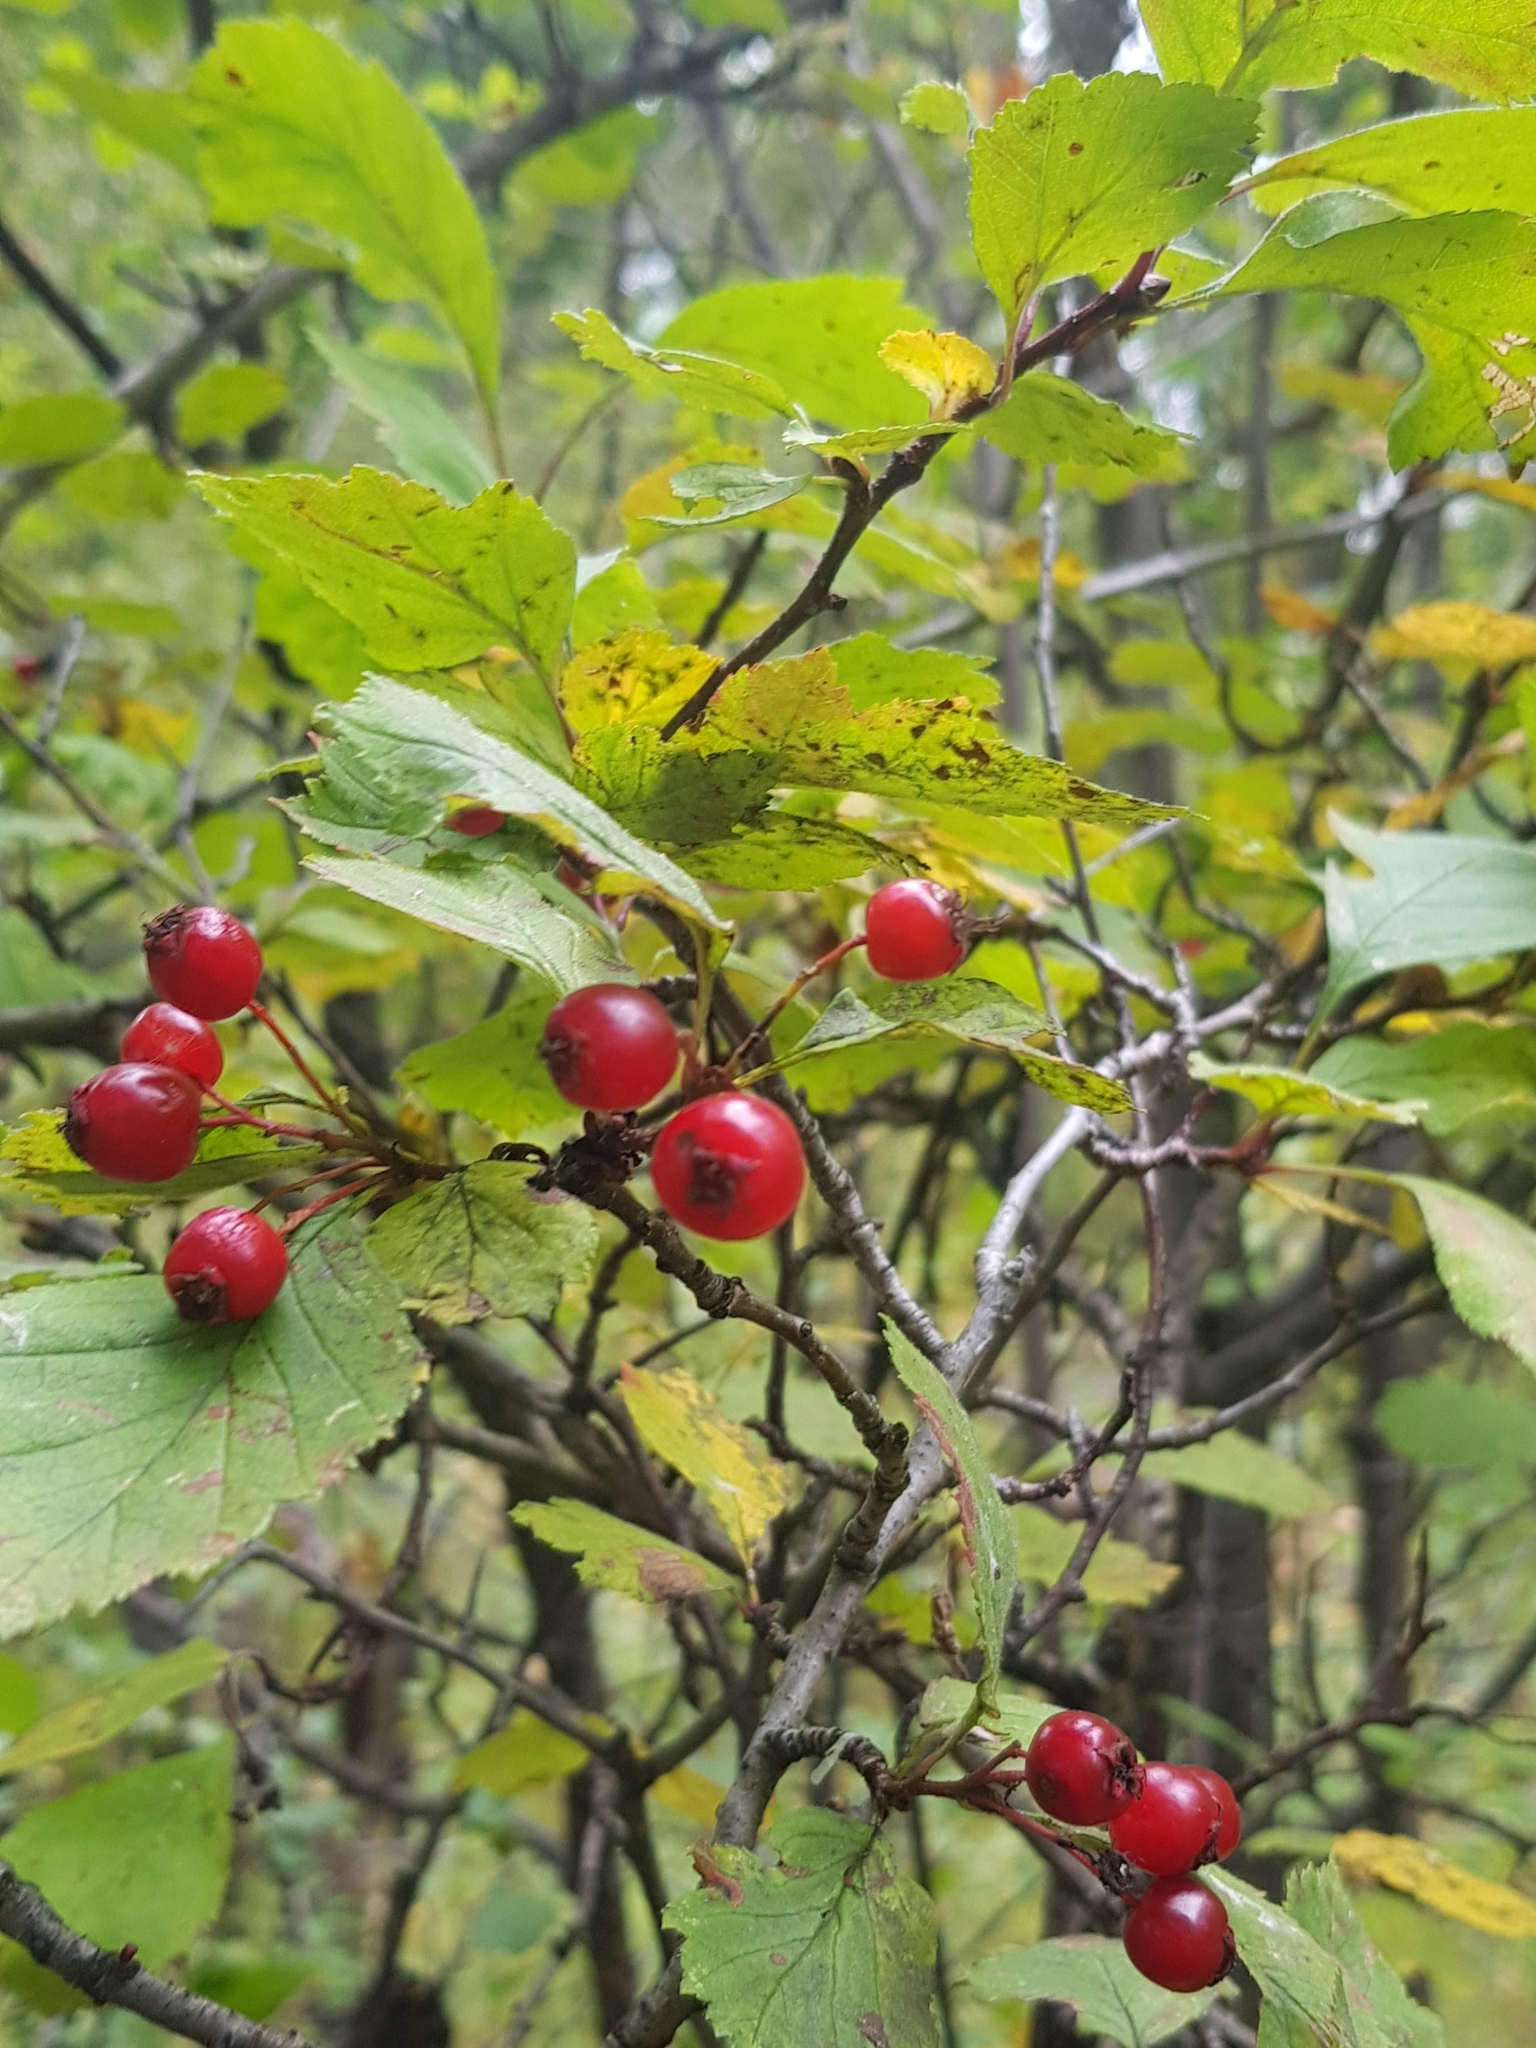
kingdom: Plantae
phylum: Tracheophyta
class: Magnoliopsida
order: Rosales
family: Rosaceae
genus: Crataegus
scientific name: Crataegus sanguinea
